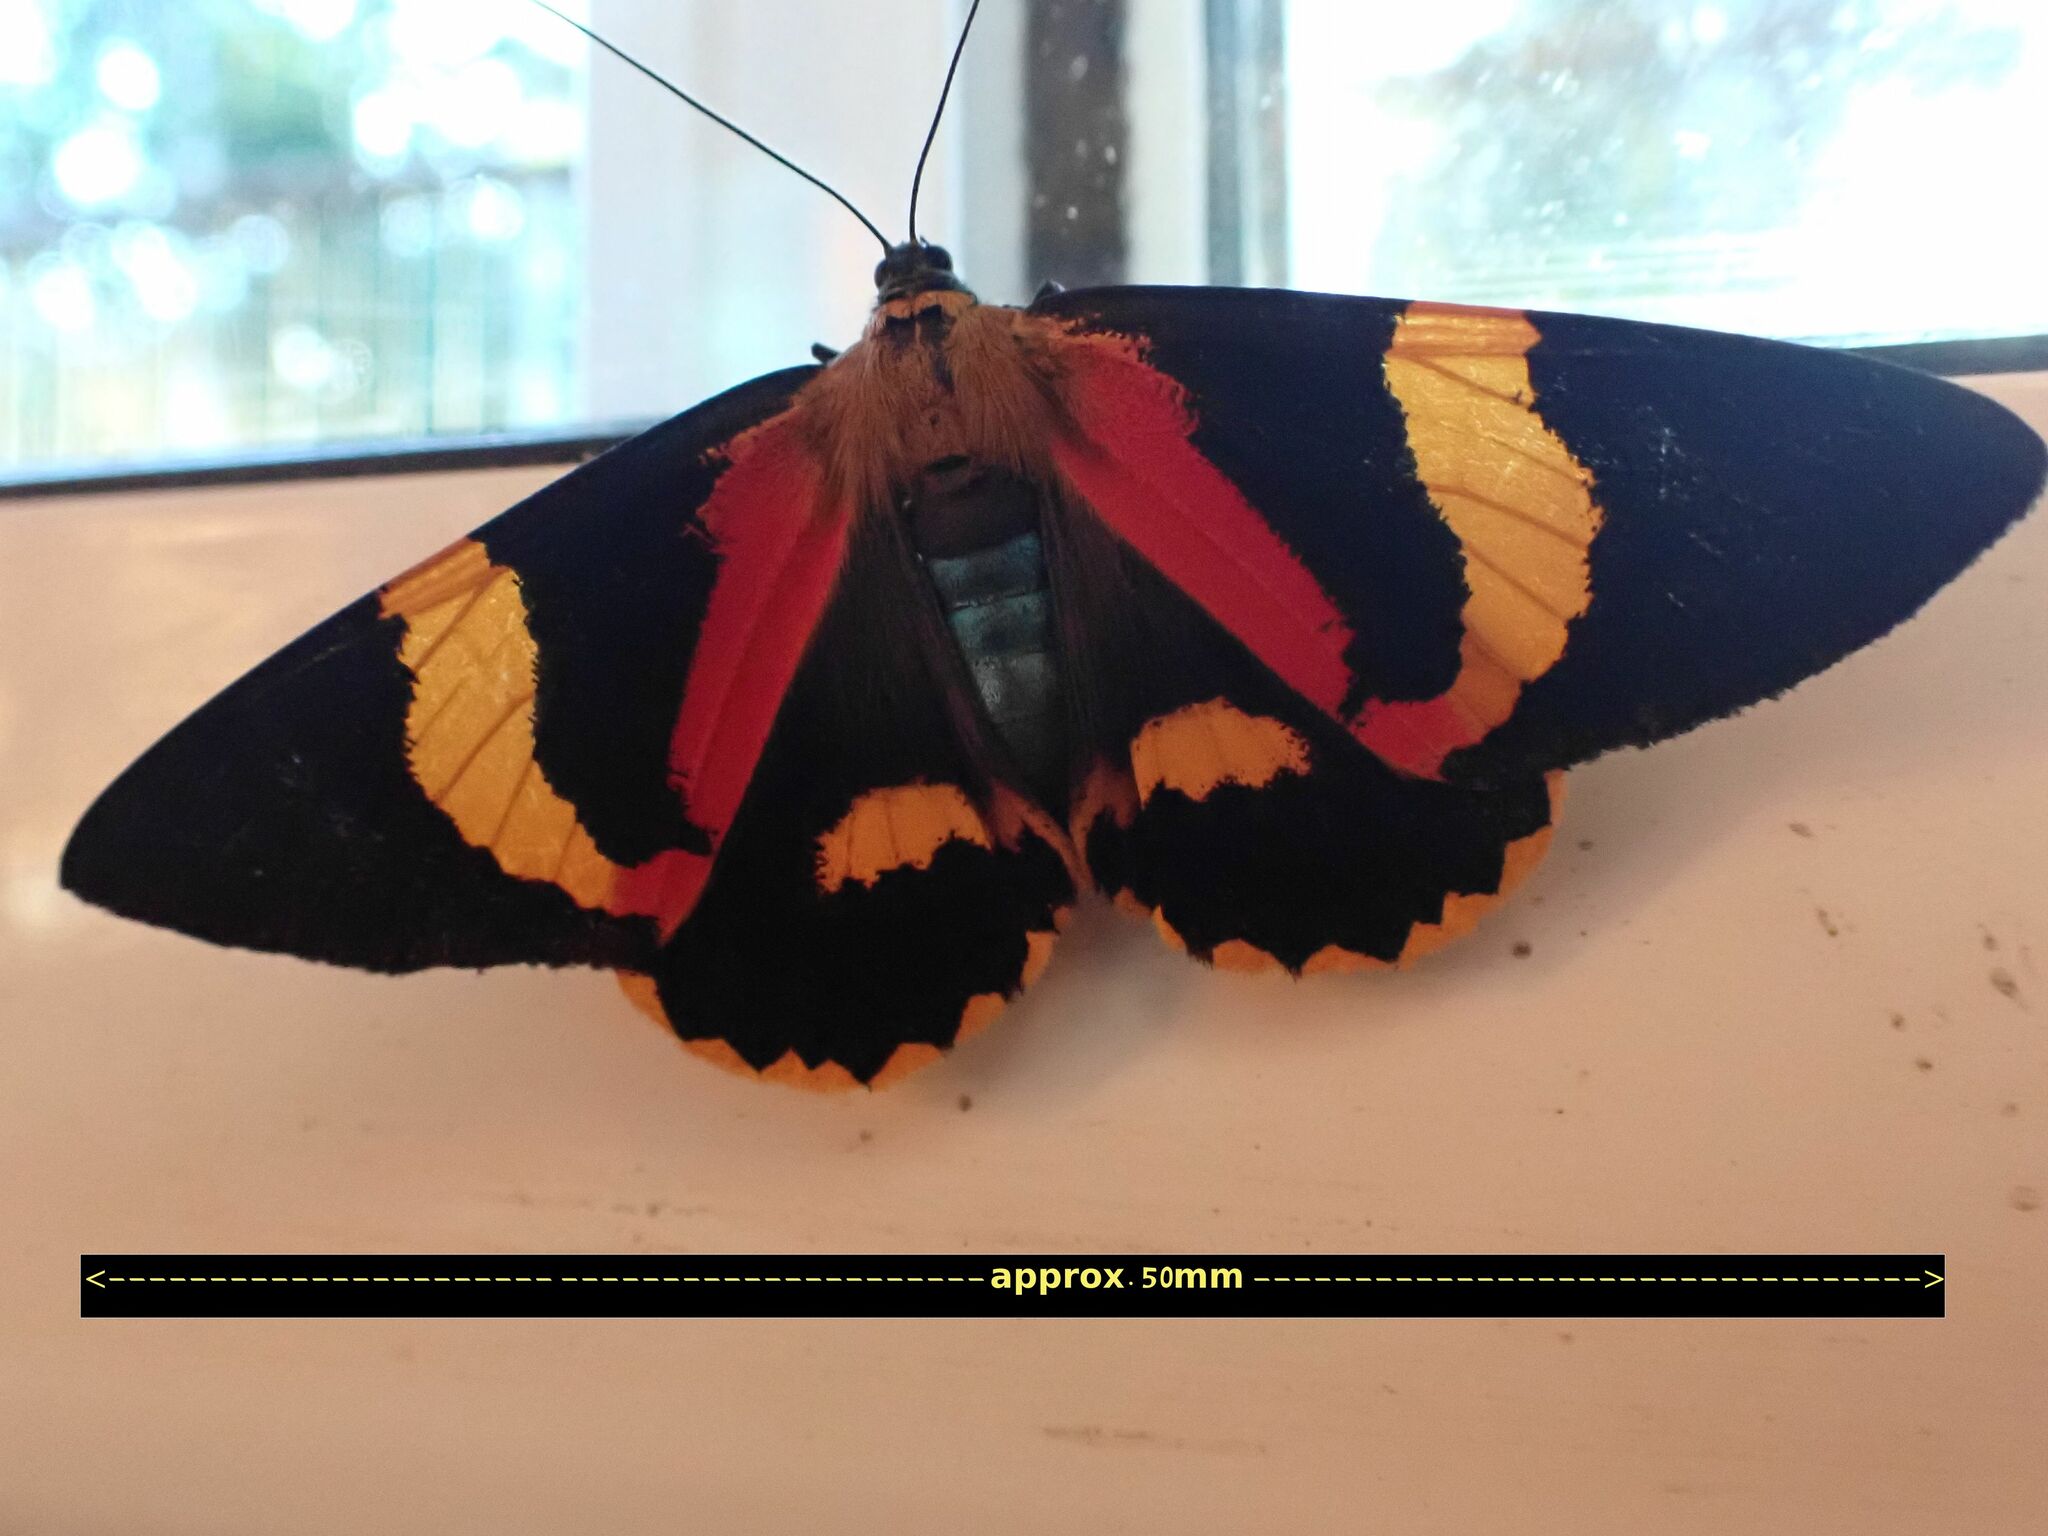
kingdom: Animalia
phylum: Arthropoda
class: Insecta
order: Lepidoptera
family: Geometridae
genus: Milionia
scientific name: Milionia queenslandica
